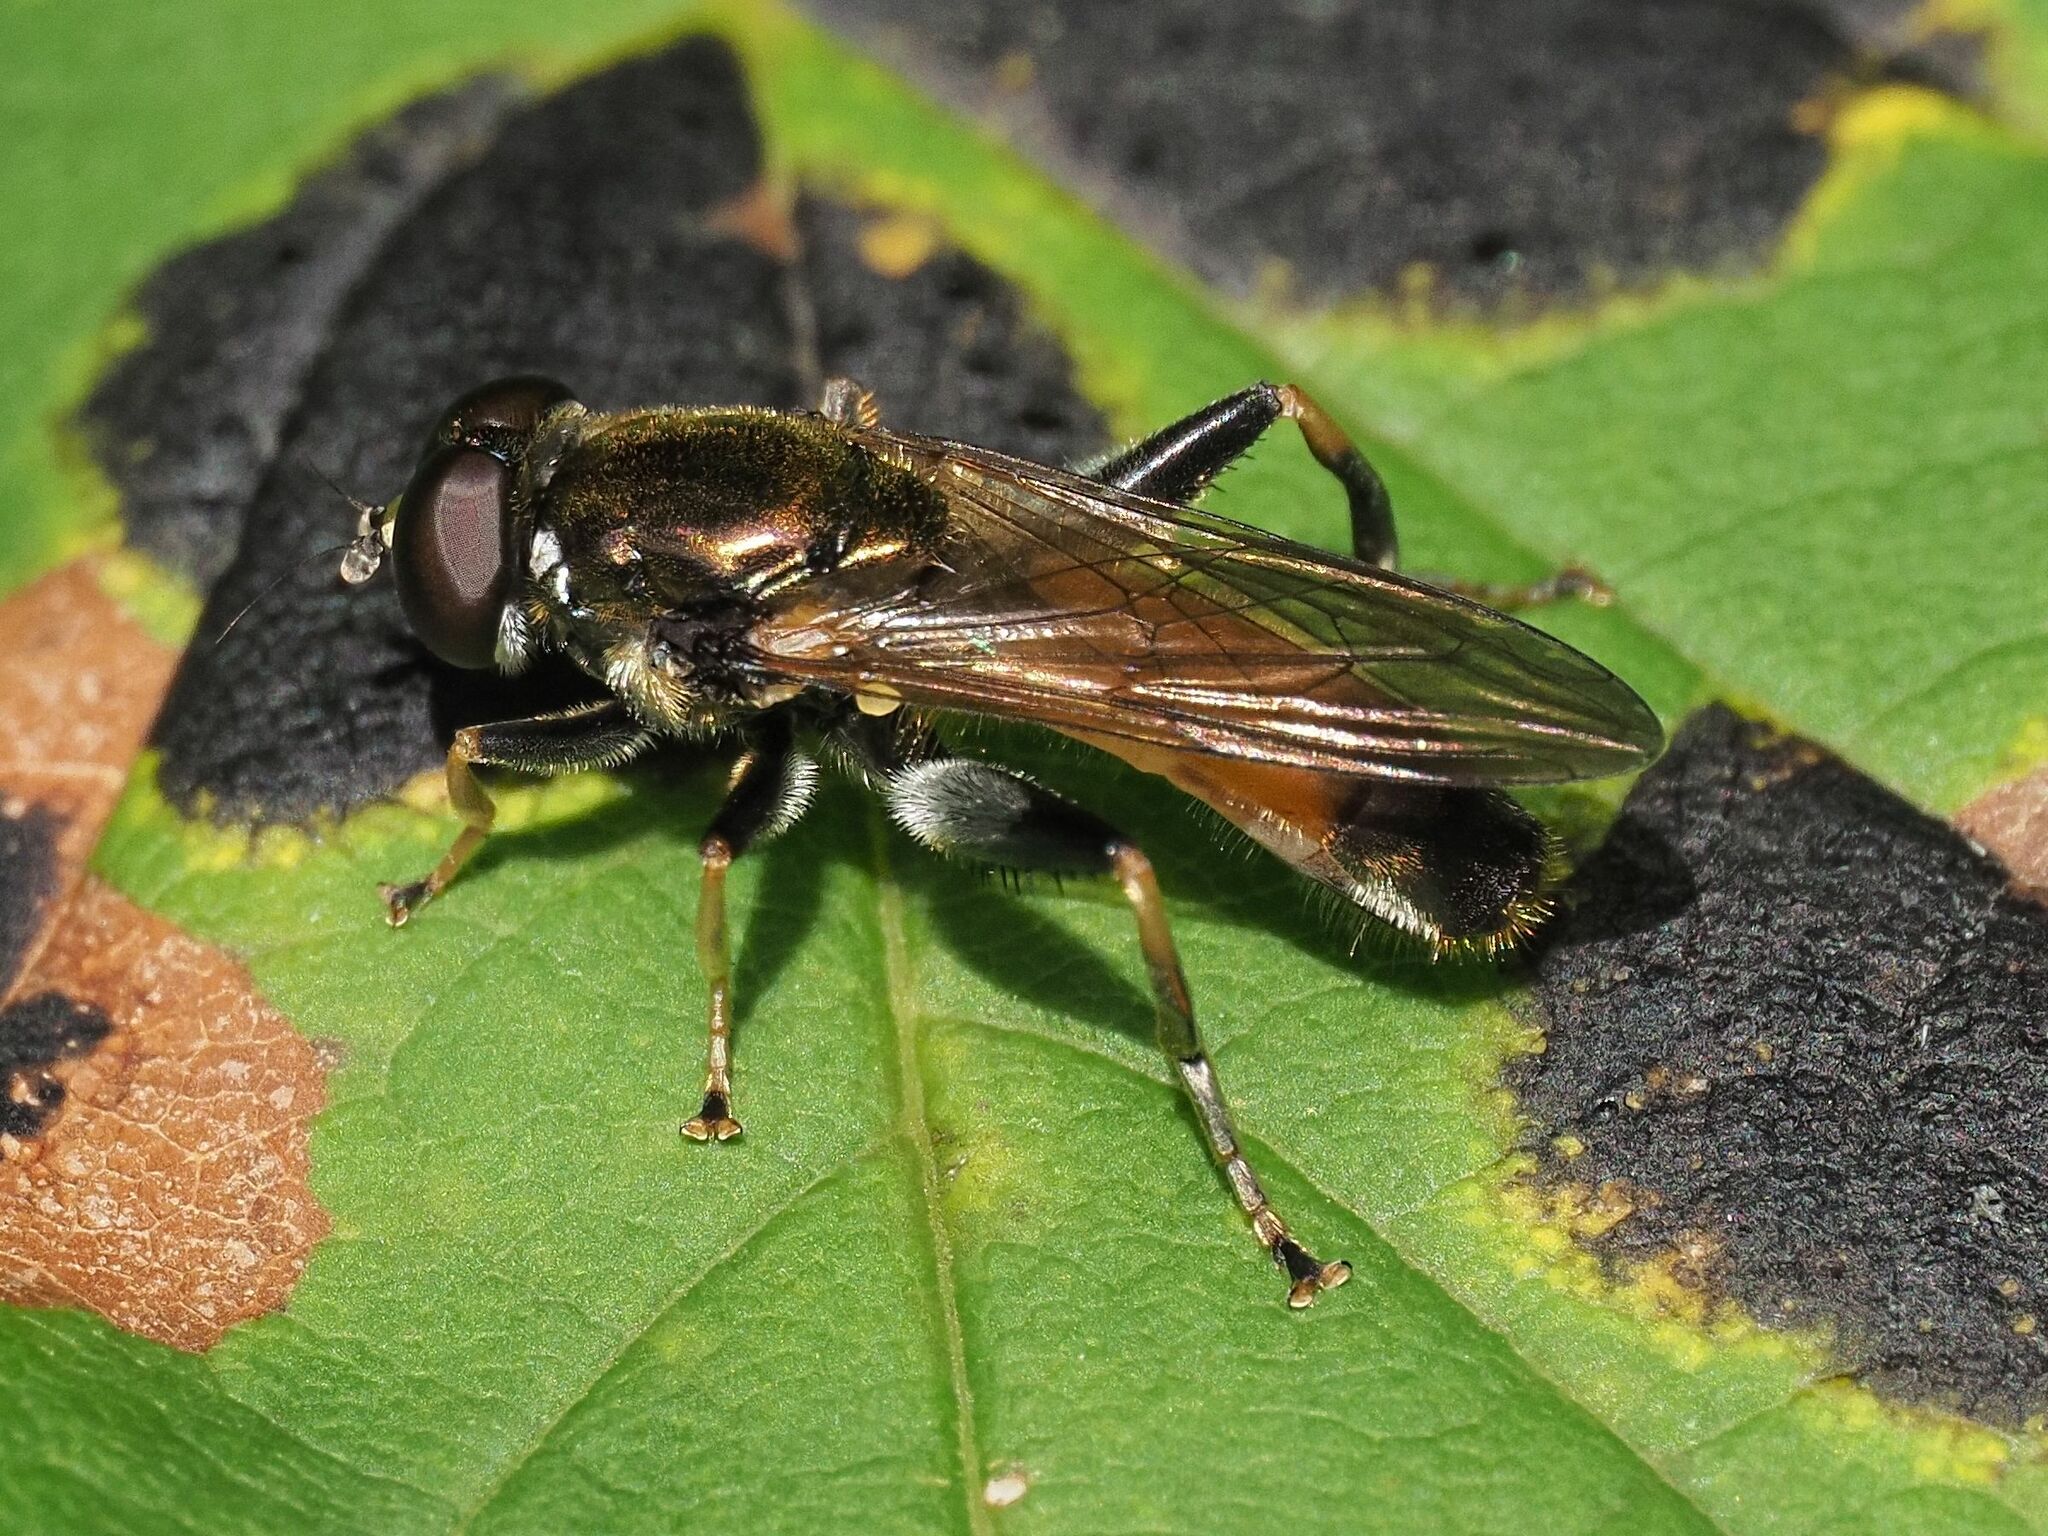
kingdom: Animalia
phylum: Arthropoda
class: Insecta
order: Diptera
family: Syrphidae
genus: Xylota
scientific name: Xylota segnis
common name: Brown-toed forest fly
